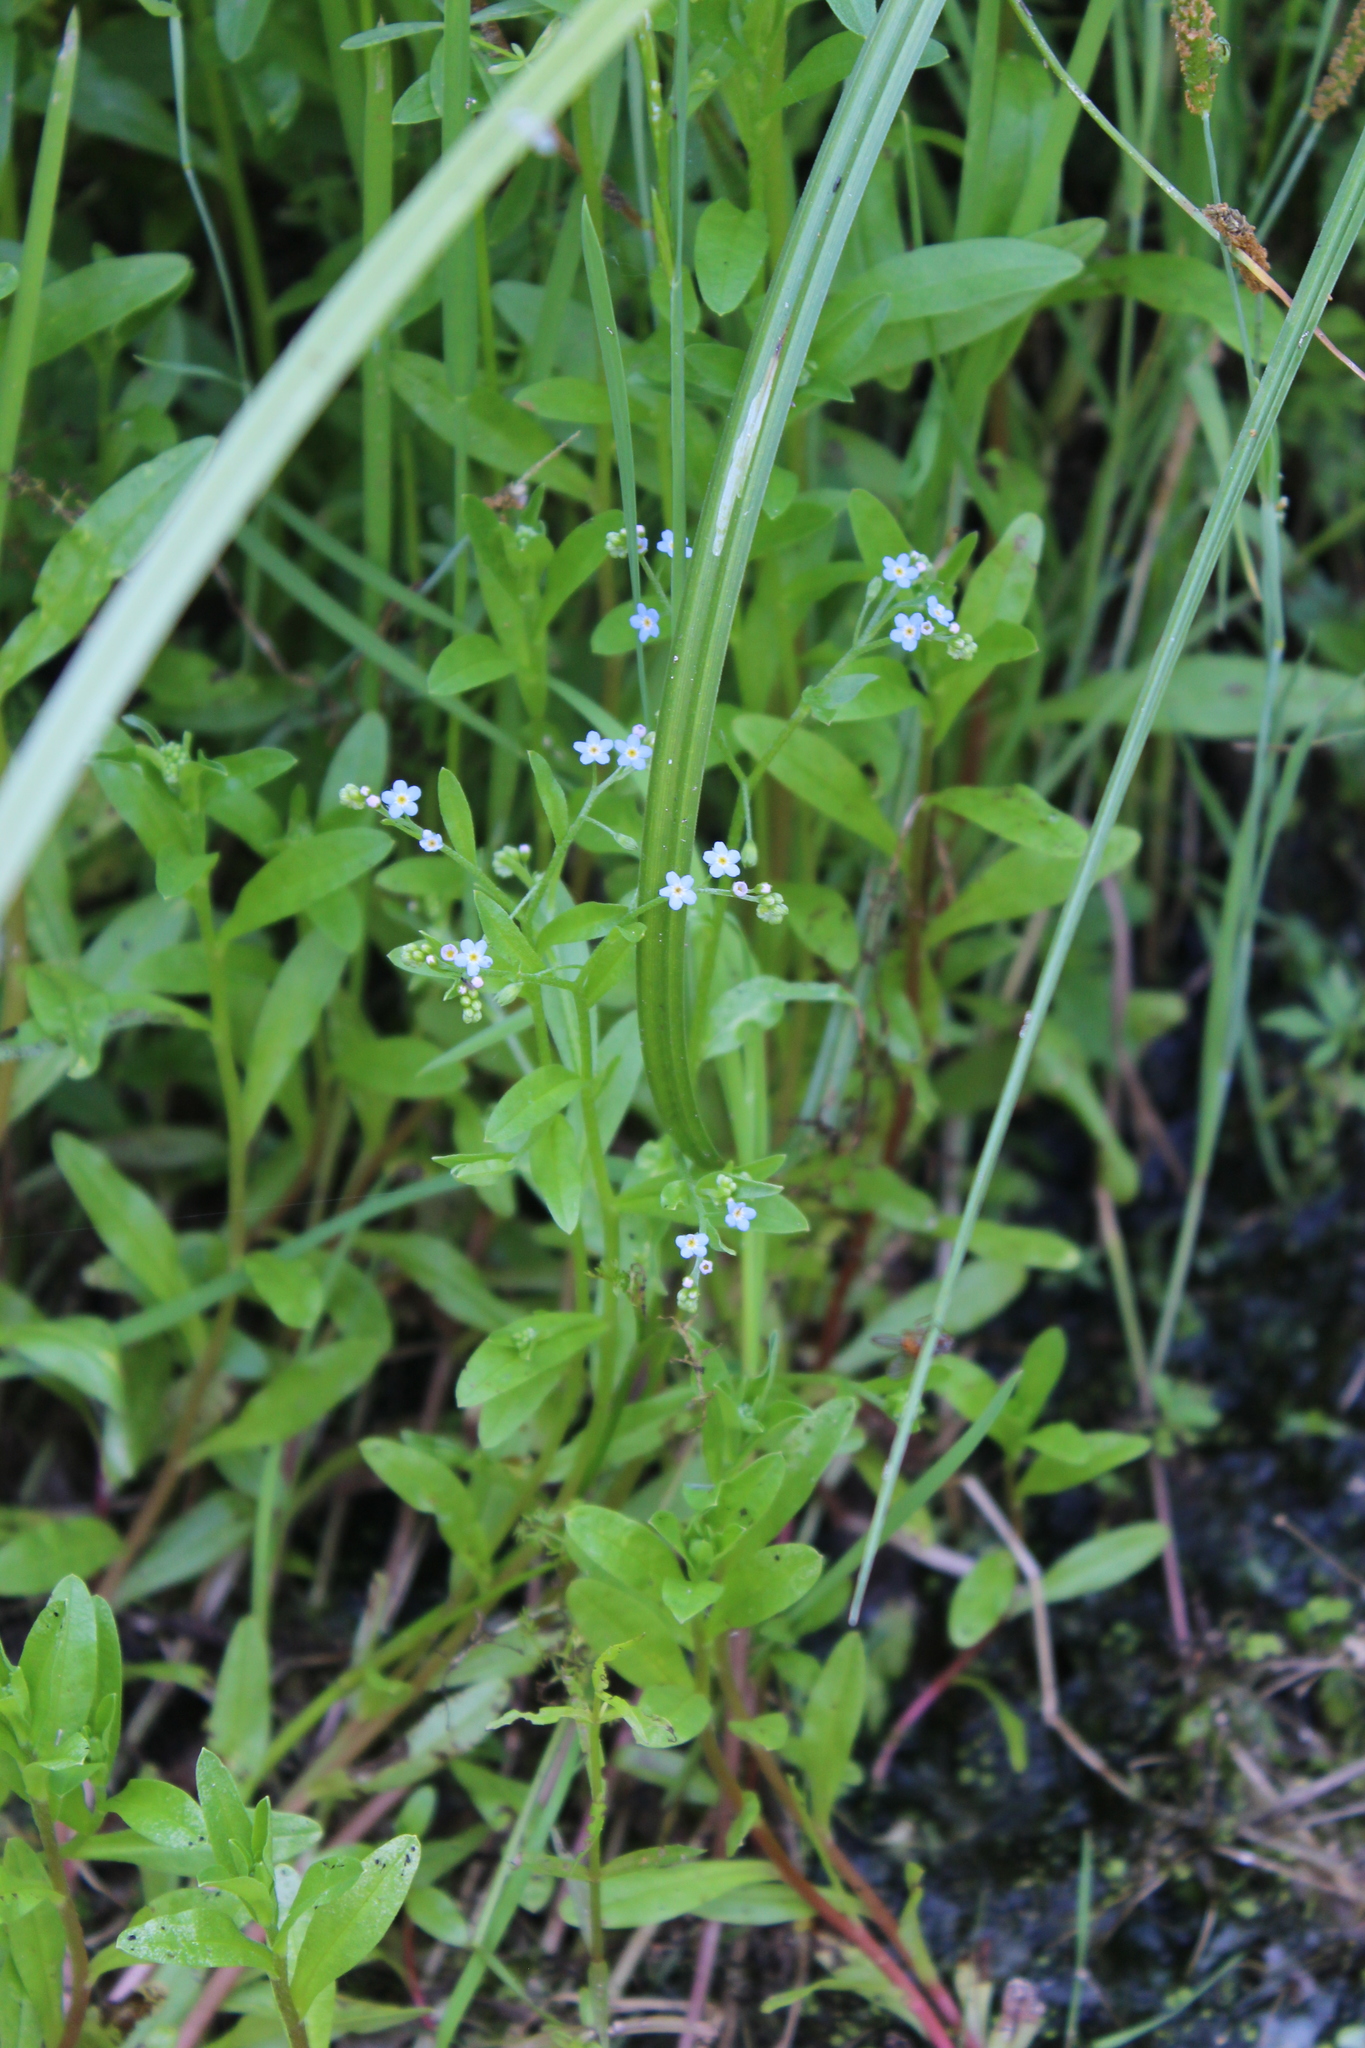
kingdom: Plantae
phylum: Tracheophyta
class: Magnoliopsida
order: Boraginales
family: Boraginaceae
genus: Myosotis
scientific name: Myosotis laxa
